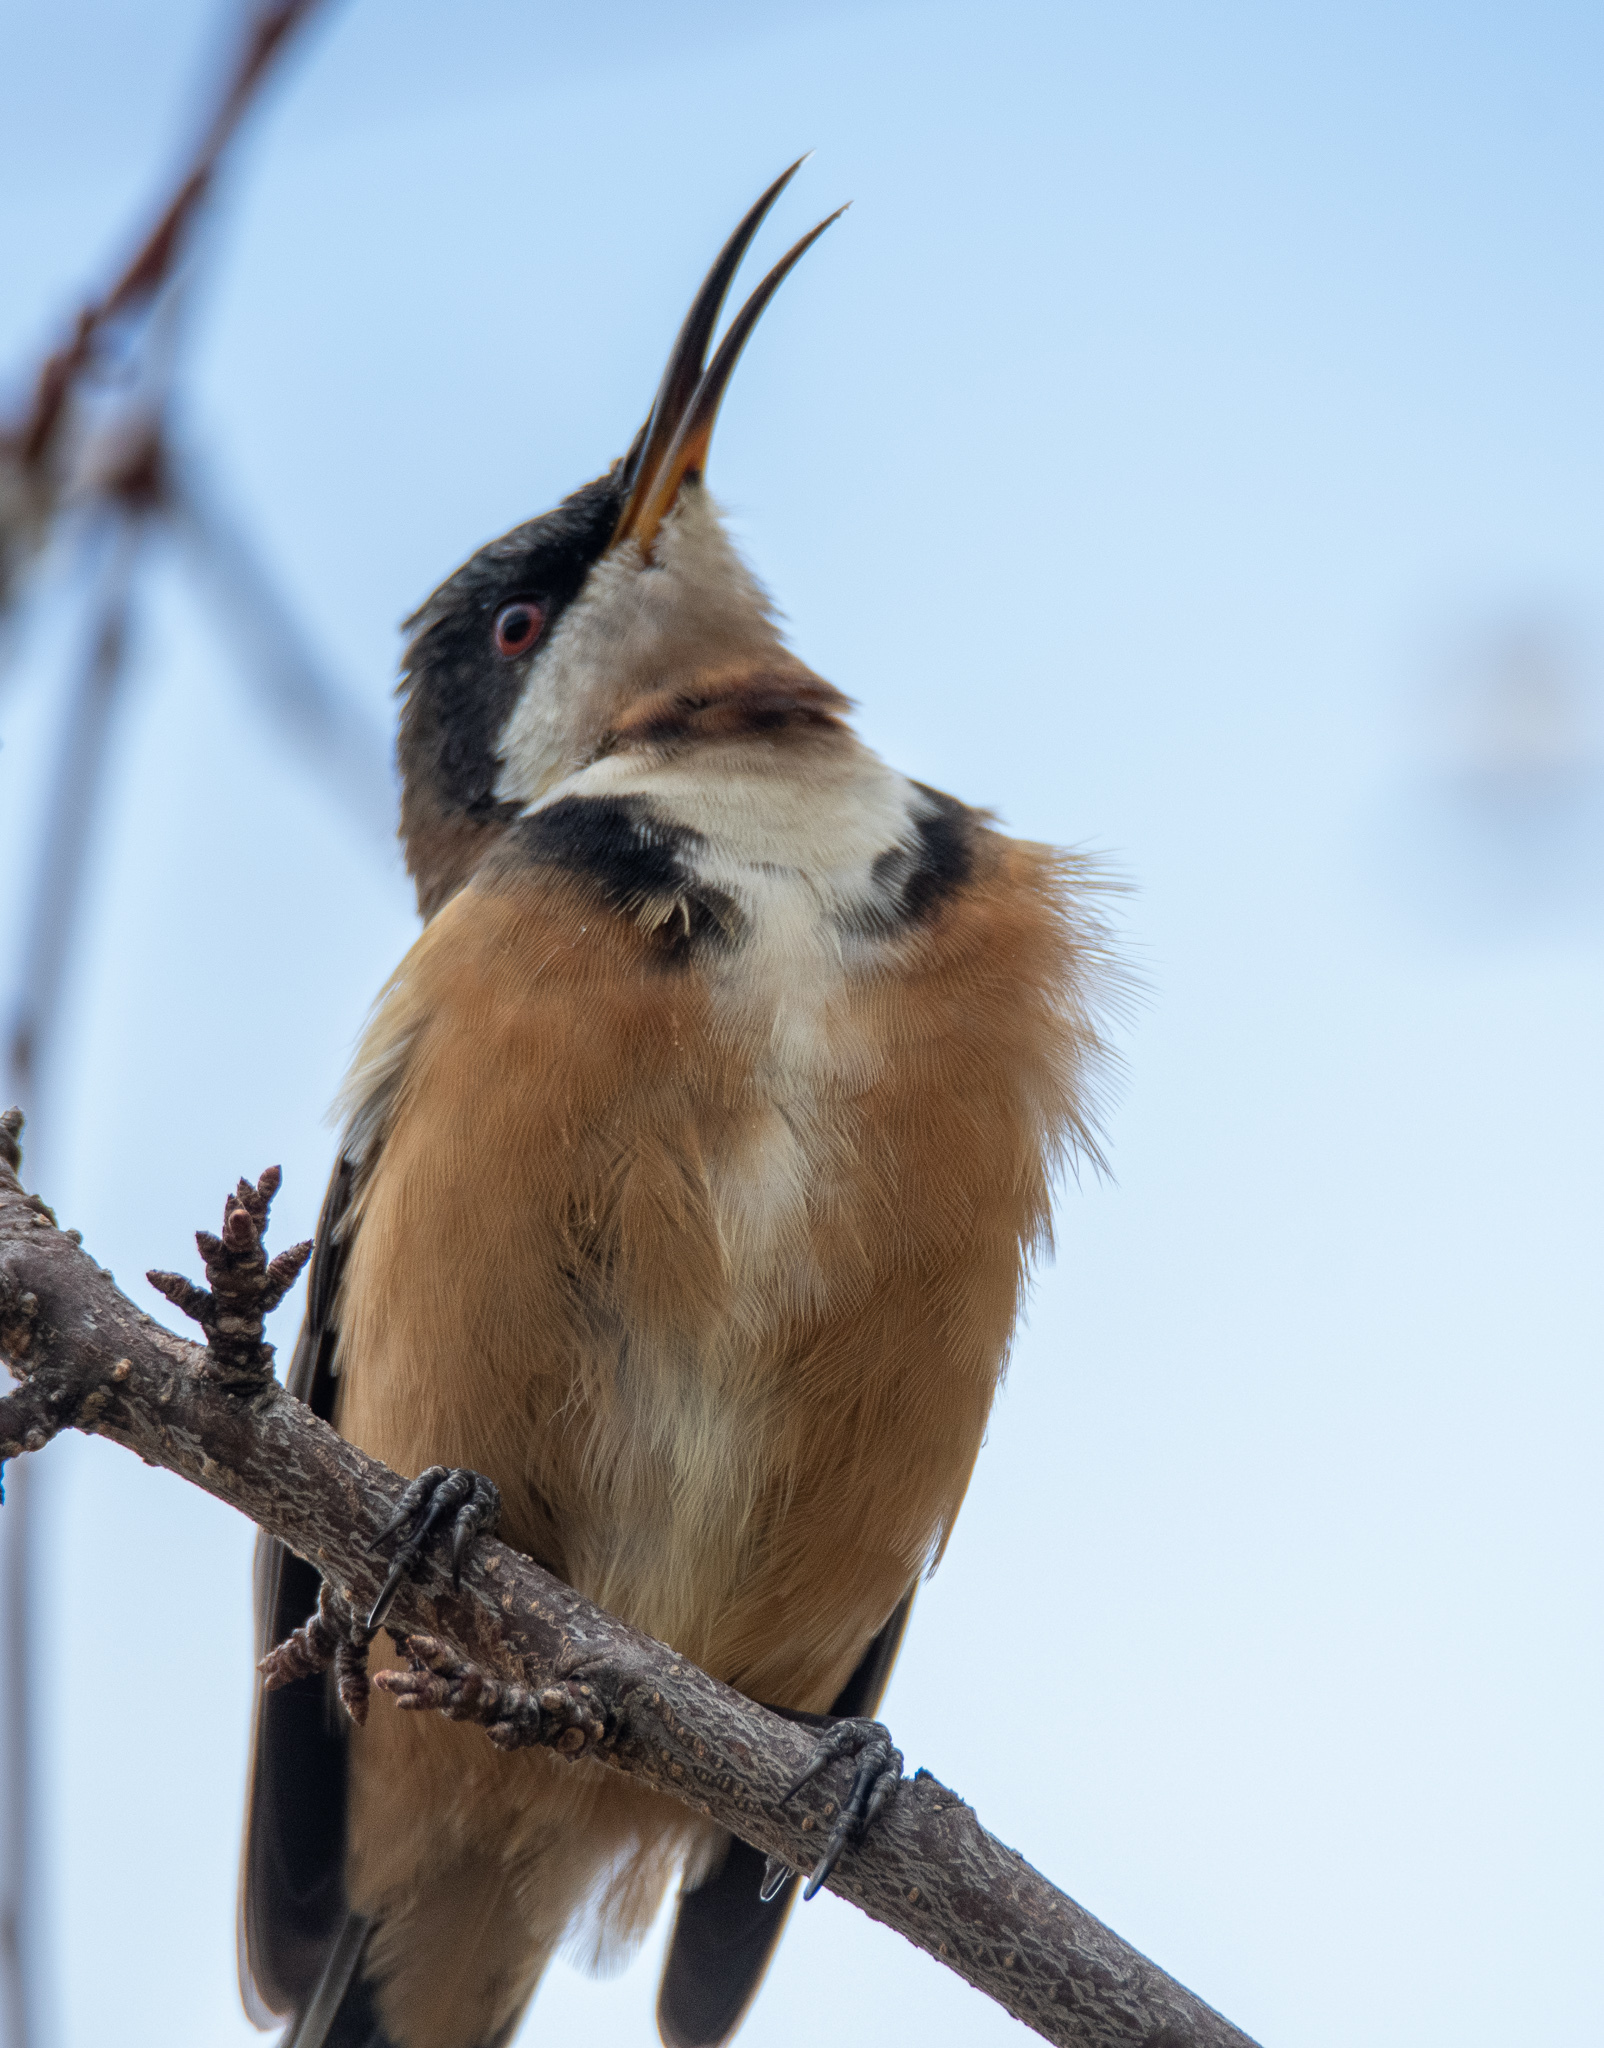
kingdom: Animalia
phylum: Chordata
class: Aves
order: Passeriformes
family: Meliphagidae
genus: Acanthorhynchus
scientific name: Acanthorhynchus tenuirostris
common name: Eastern spinebill
